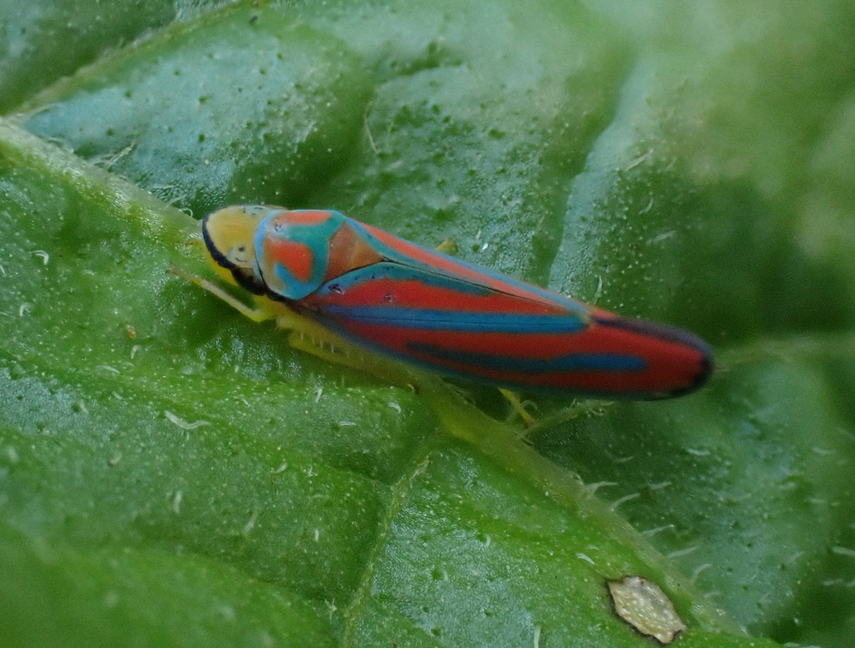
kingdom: Animalia
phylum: Arthropoda
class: Insecta
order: Hemiptera
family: Cicadellidae
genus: Graphocephala
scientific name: Graphocephala coccinea
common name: Candy-striped leafhopper
